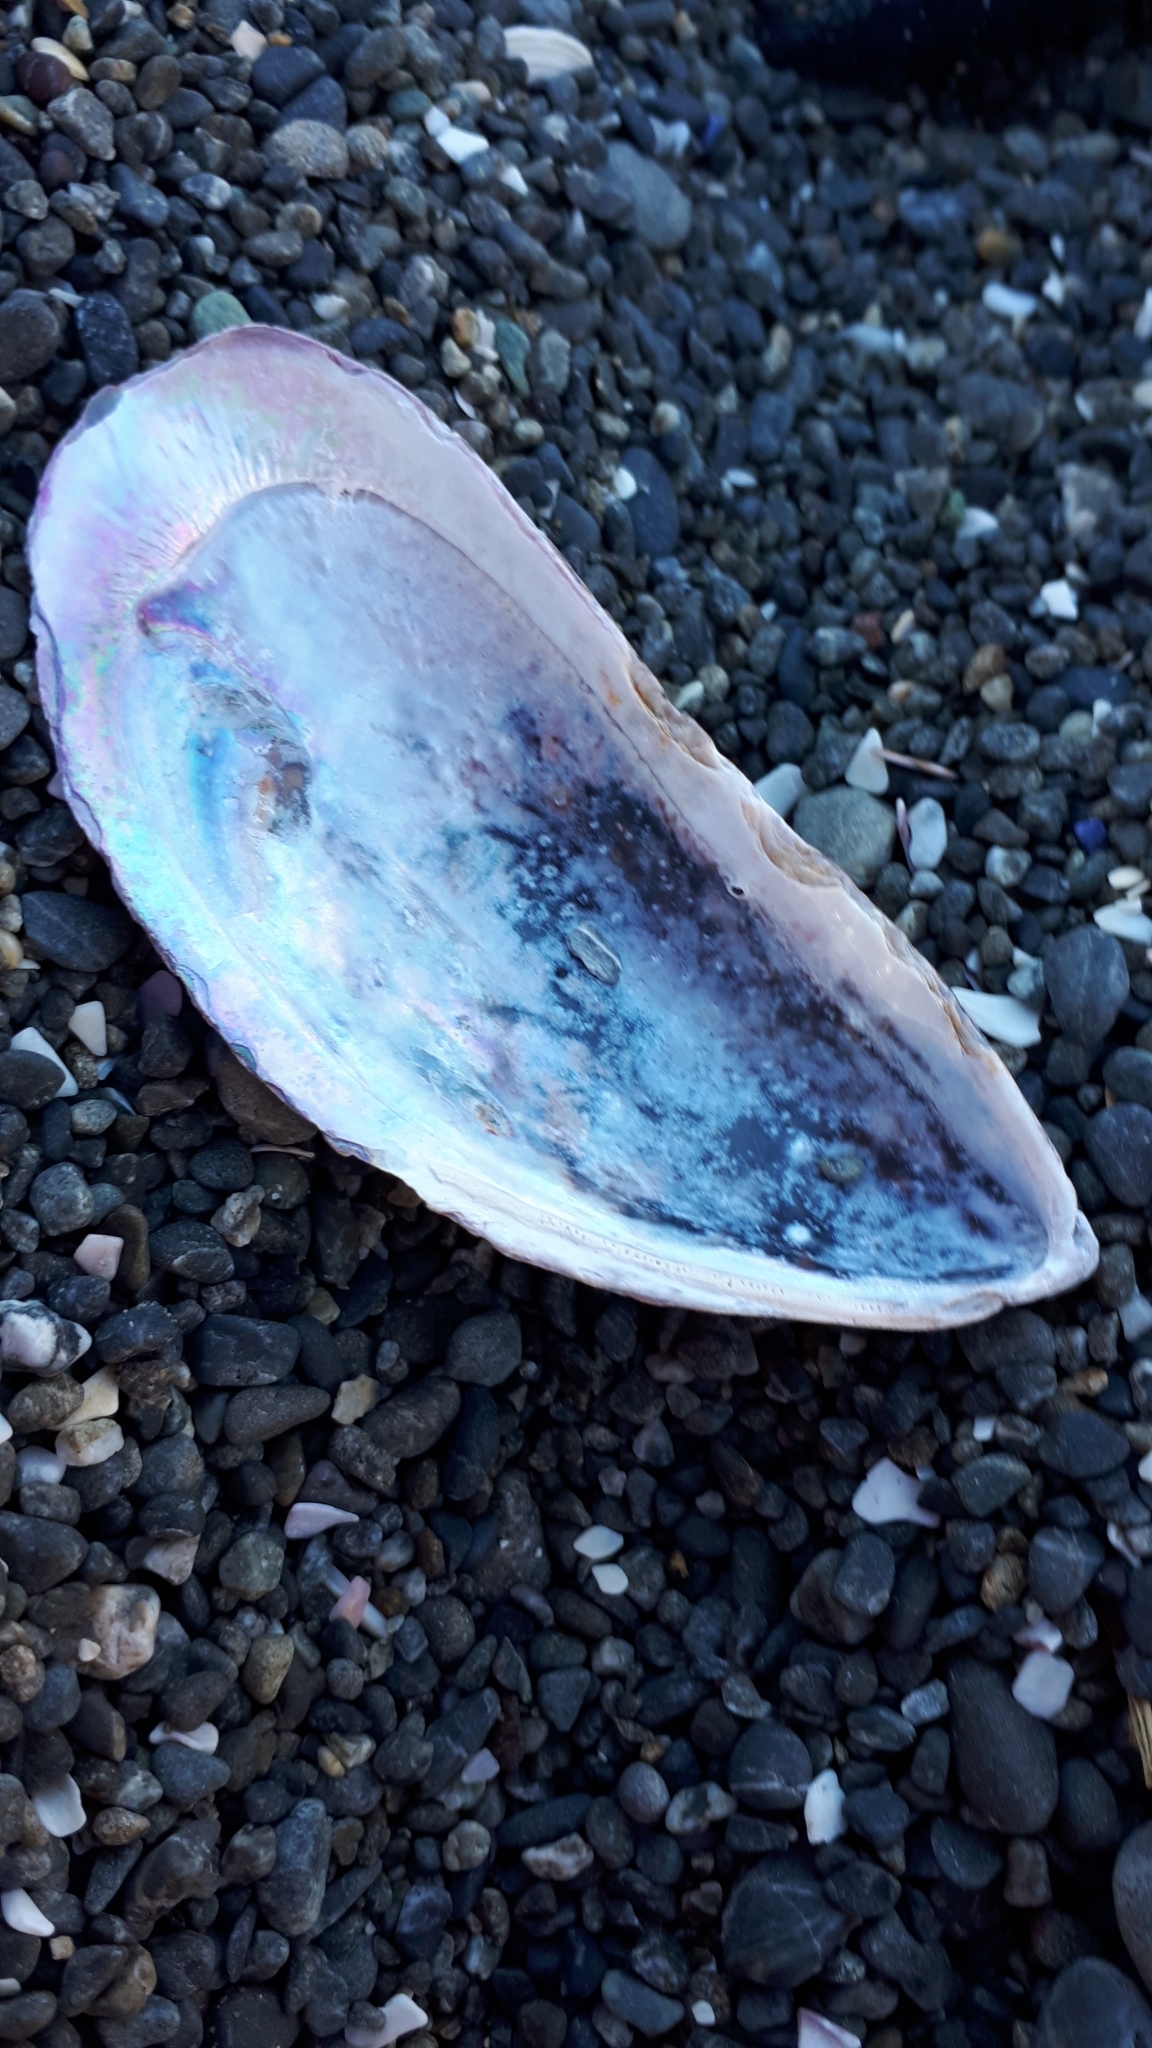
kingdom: Animalia
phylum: Mollusca
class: Bivalvia
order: Mytilida
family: Mytilidae
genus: Perna
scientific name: Perna canaliculus
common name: New zealand greenshelltm
